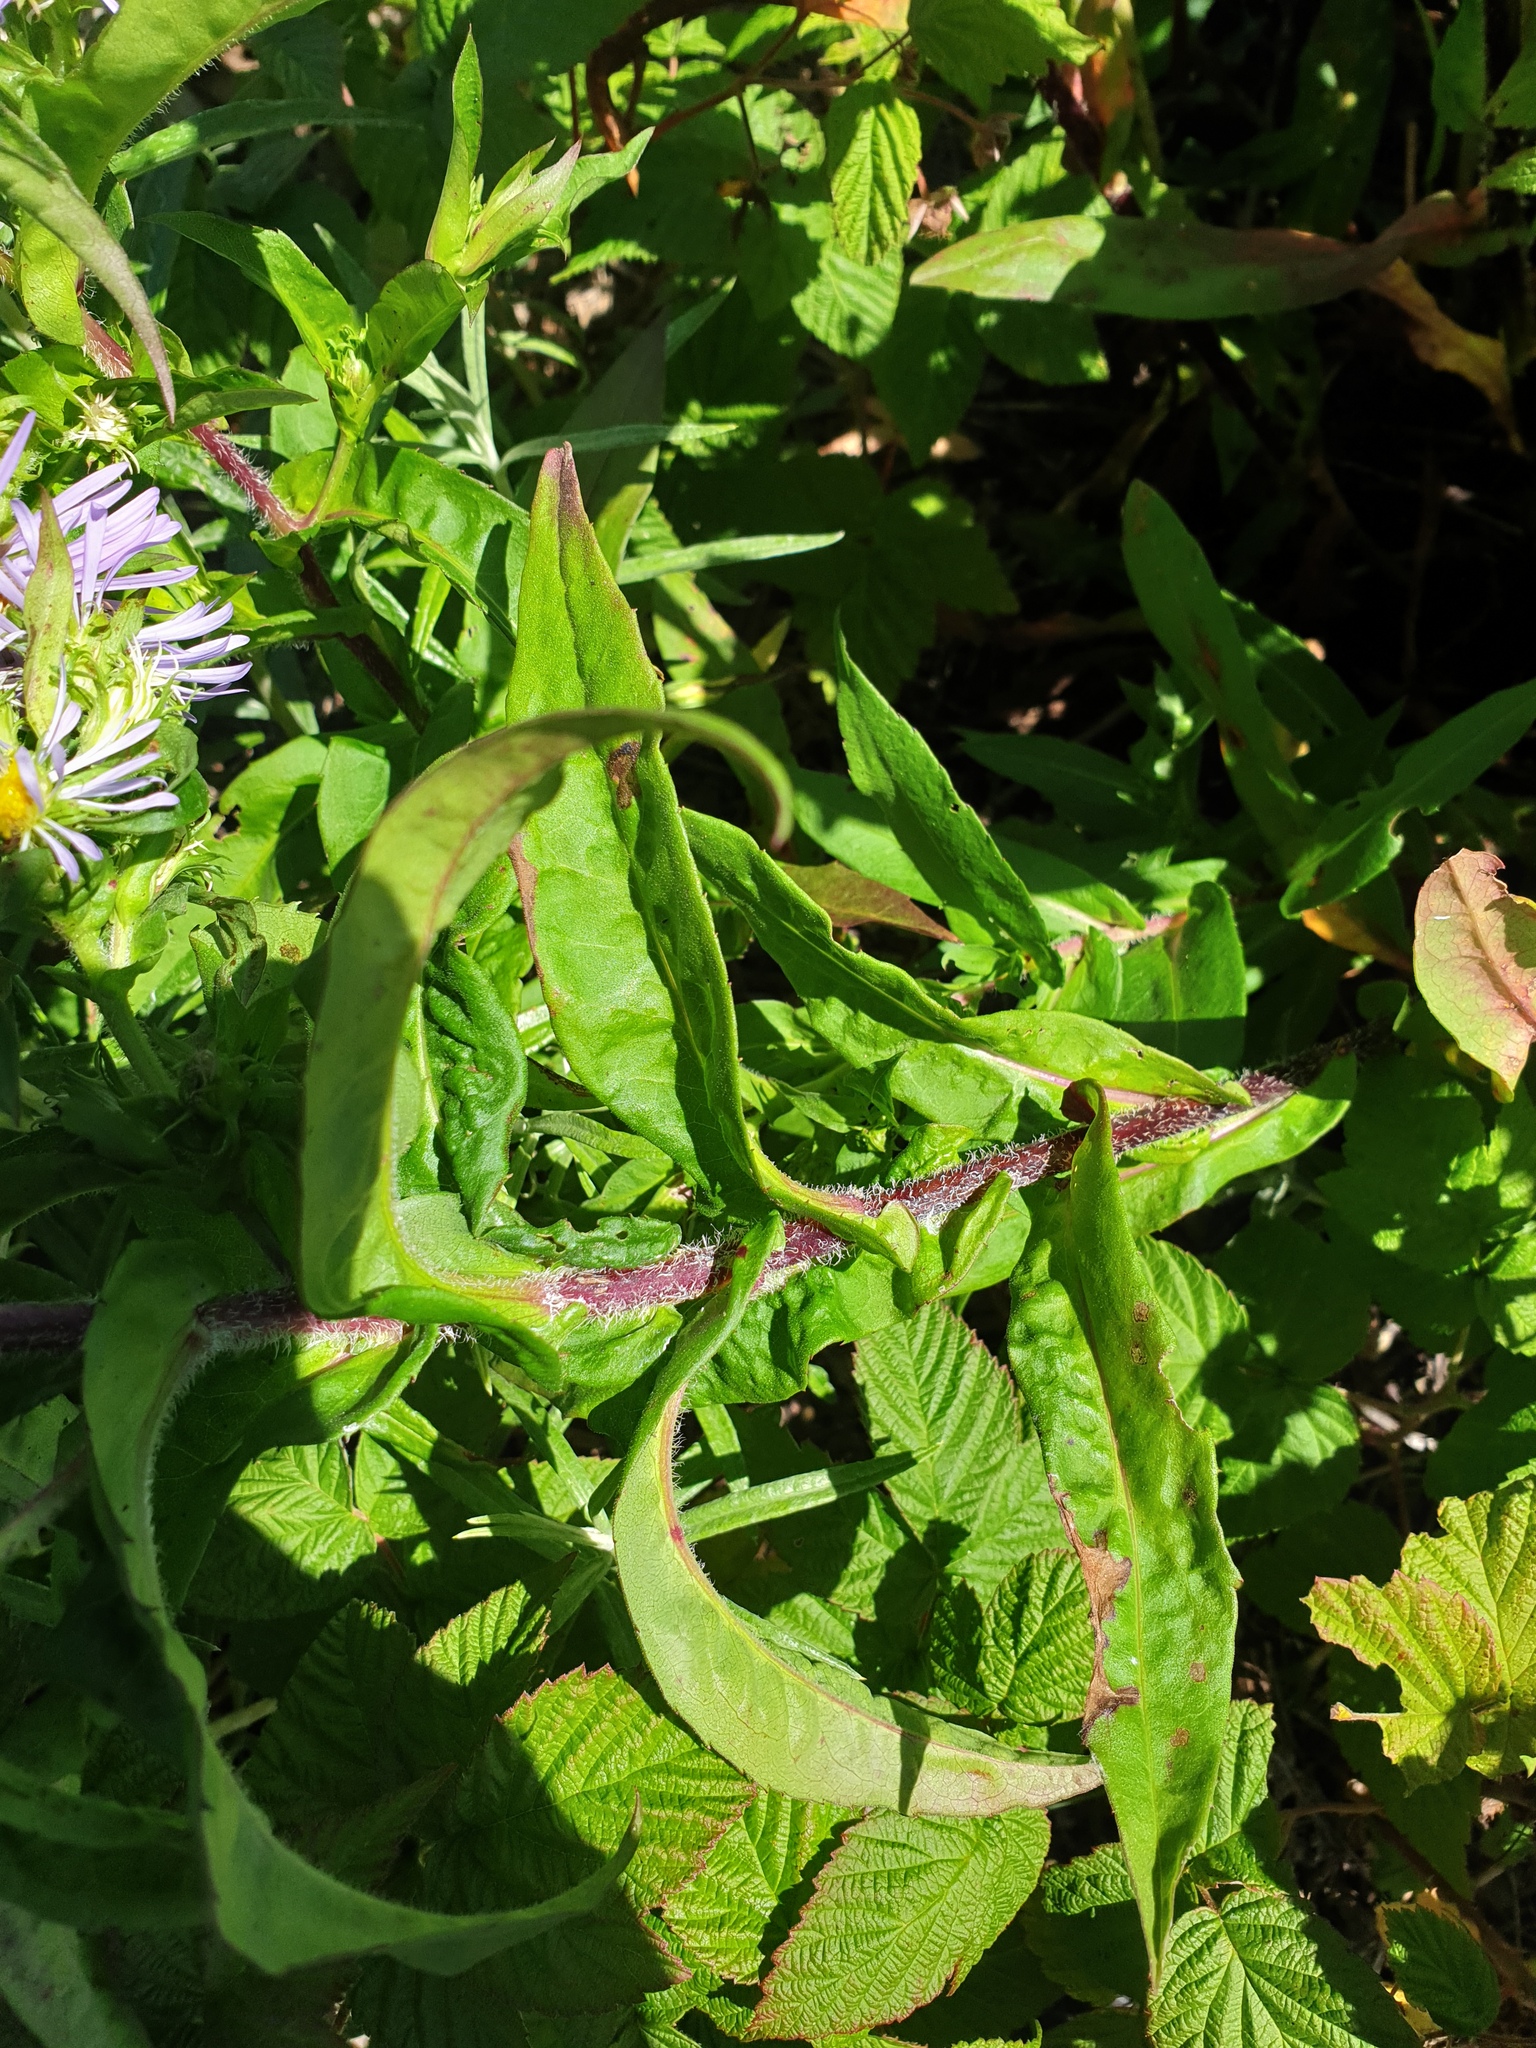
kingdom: Plantae
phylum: Tracheophyta
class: Magnoliopsida
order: Asterales
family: Asteraceae
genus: Symphyotrichum
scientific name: Symphyotrichum puniceum
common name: Bog aster
